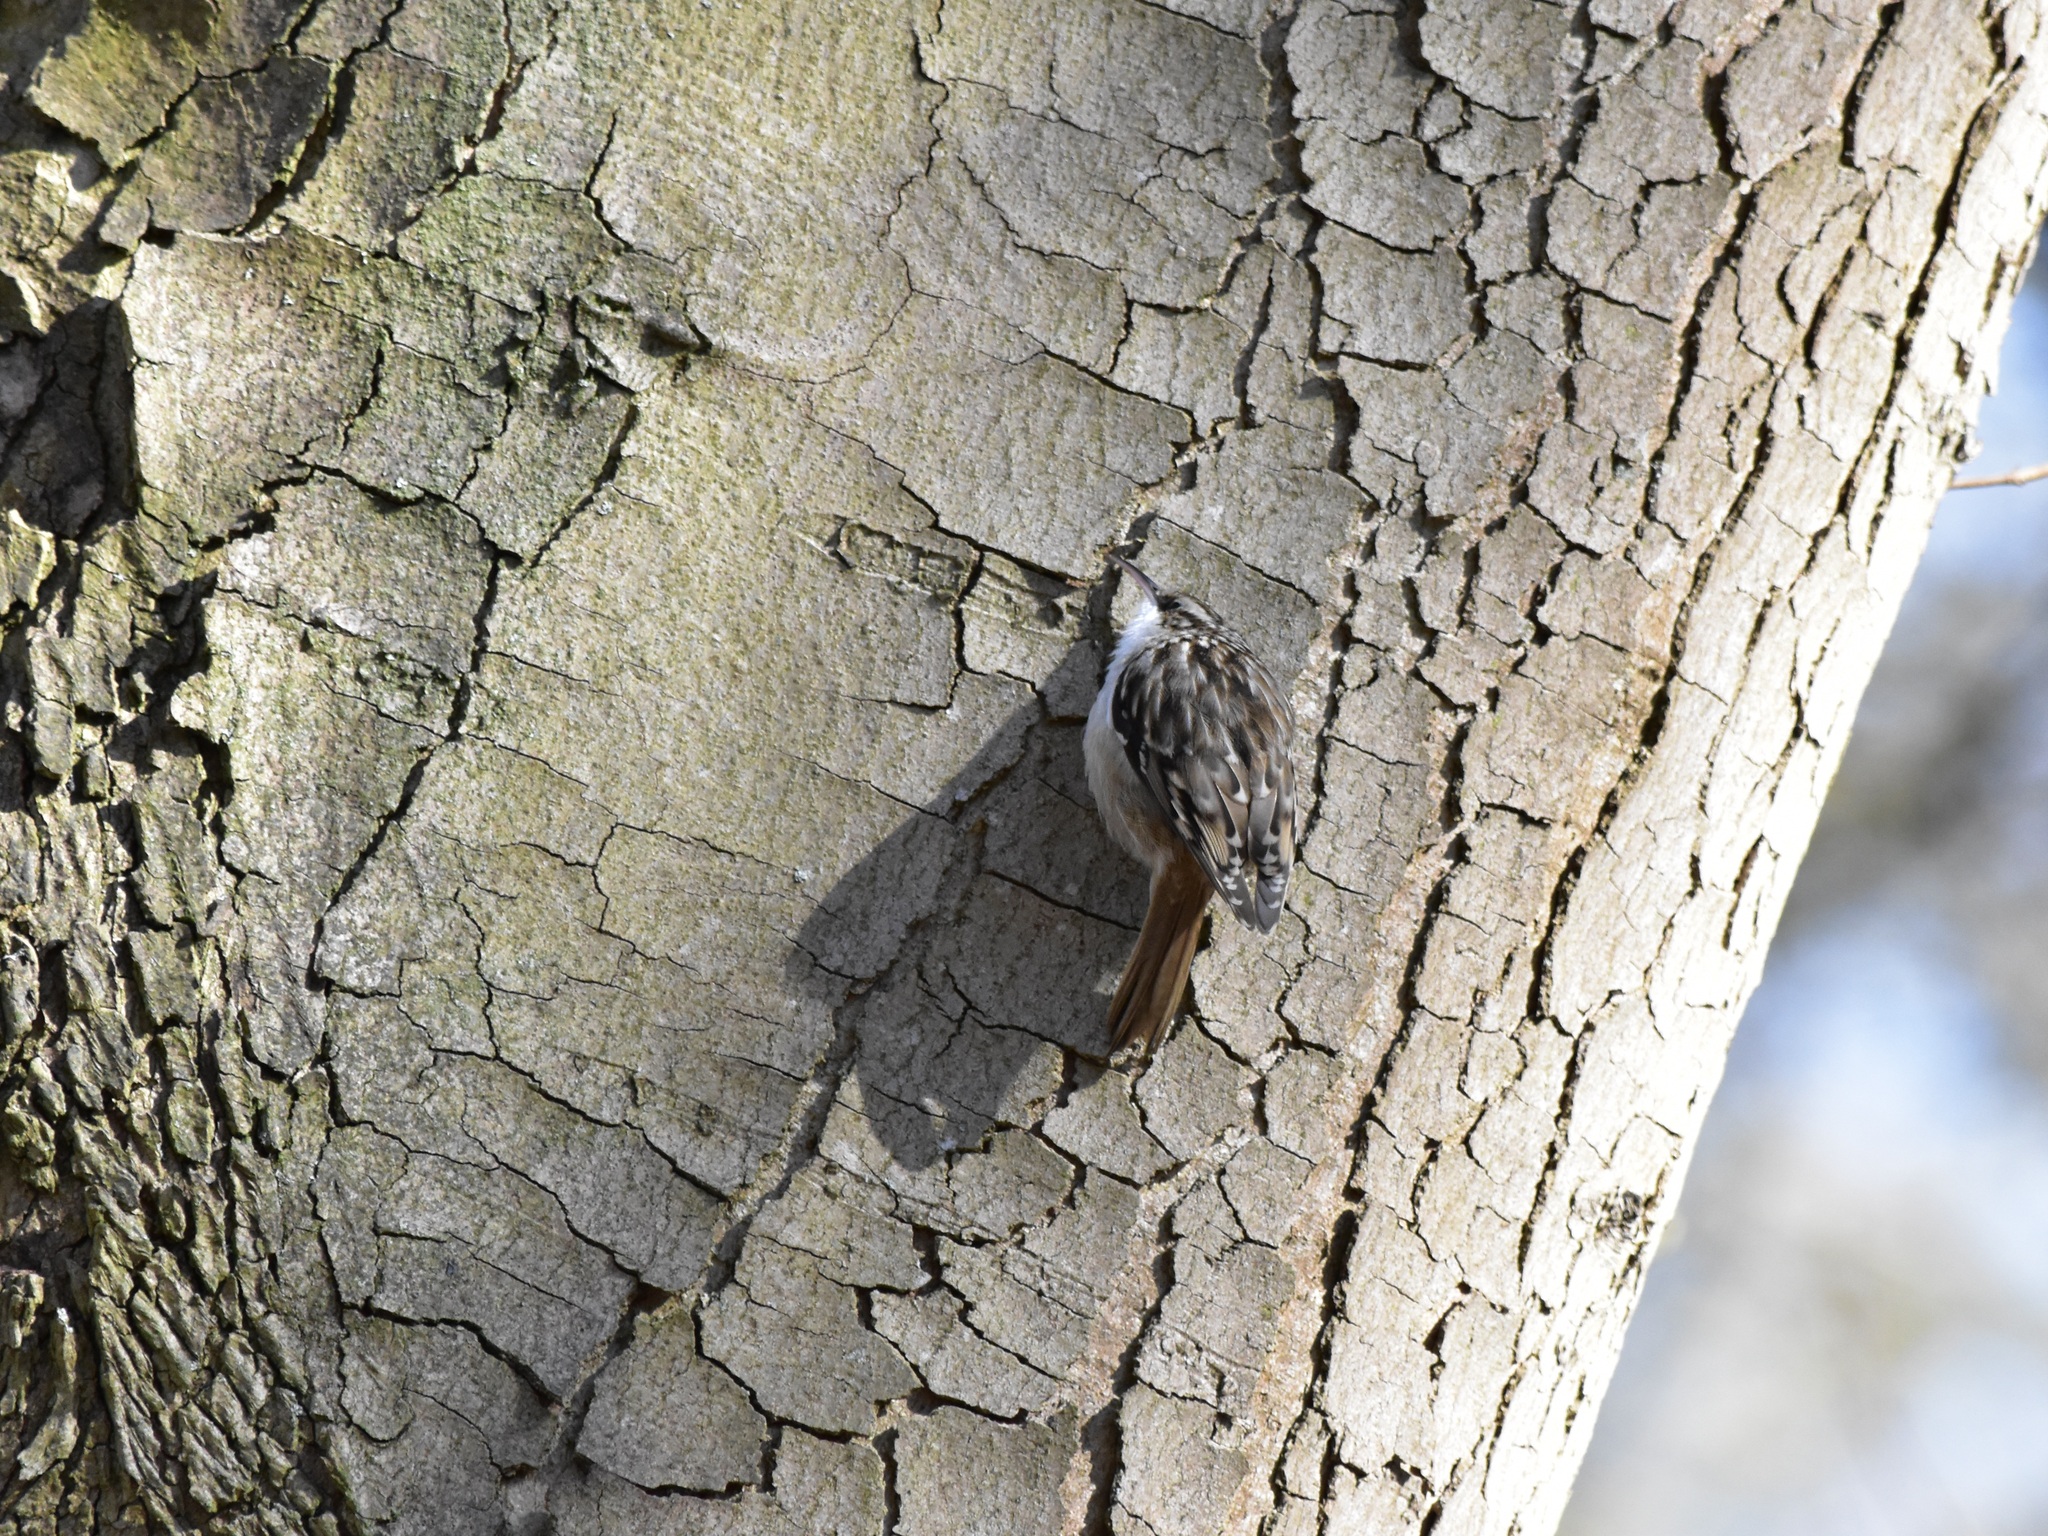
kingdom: Animalia
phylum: Chordata
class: Aves
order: Passeriformes
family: Certhiidae
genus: Certhia
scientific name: Certhia brachydactyla
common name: Short-toed treecreeper
